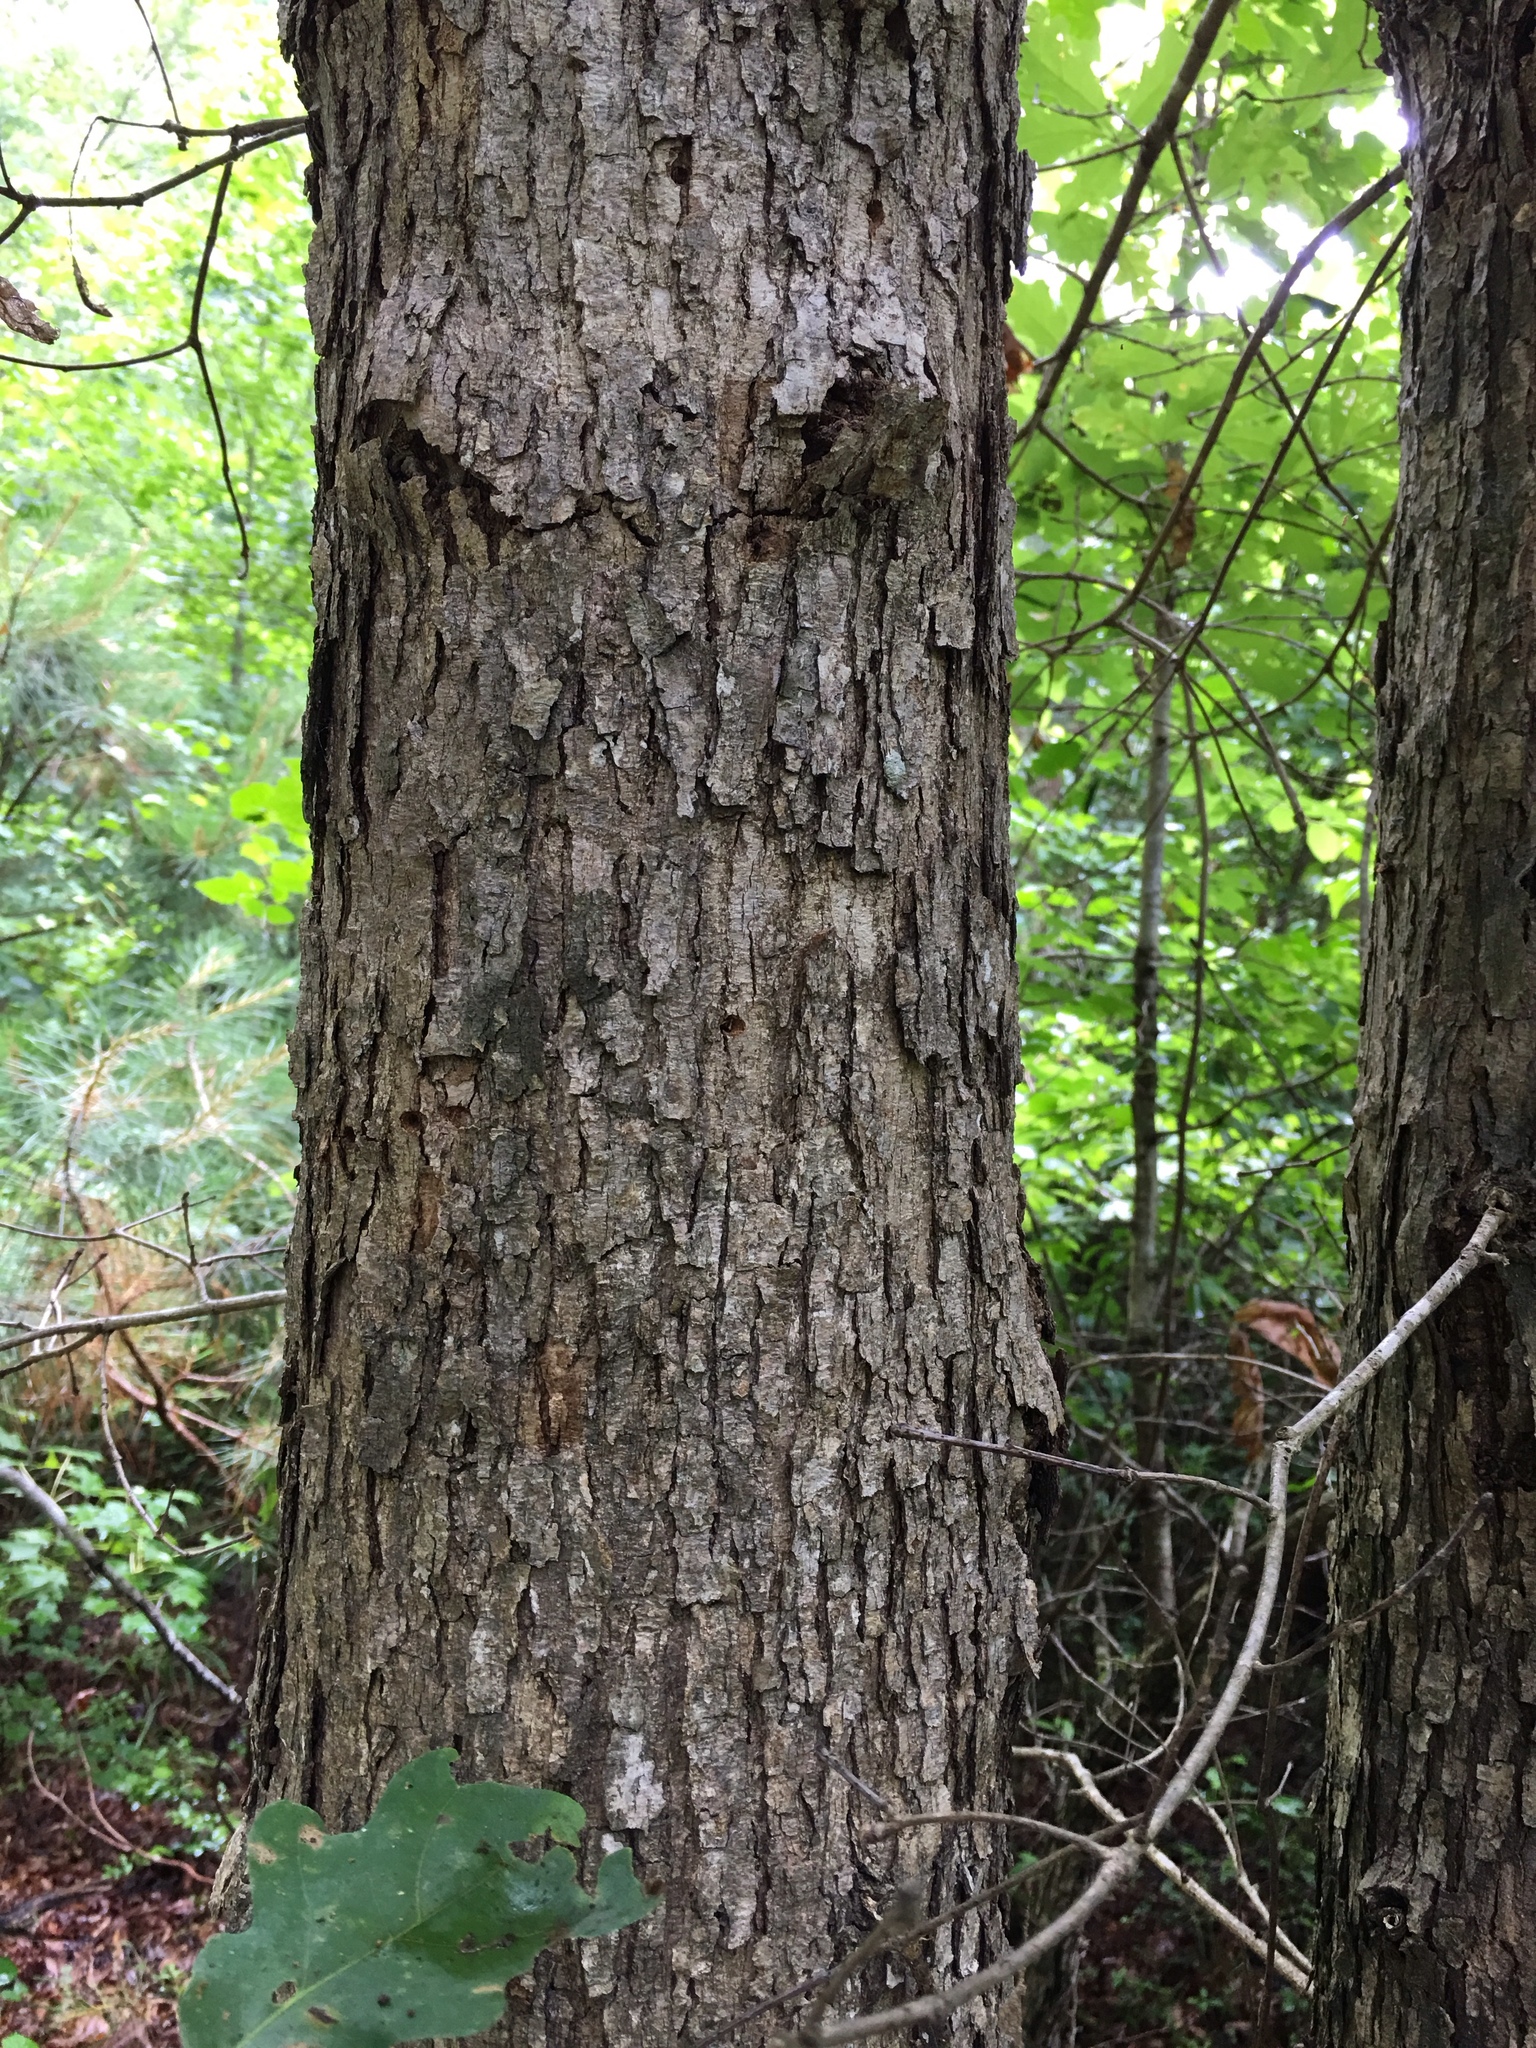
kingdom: Plantae
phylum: Tracheophyta
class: Magnoliopsida
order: Fagales
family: Fagaceae
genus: Quercus
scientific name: Quercus alba
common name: White oak
